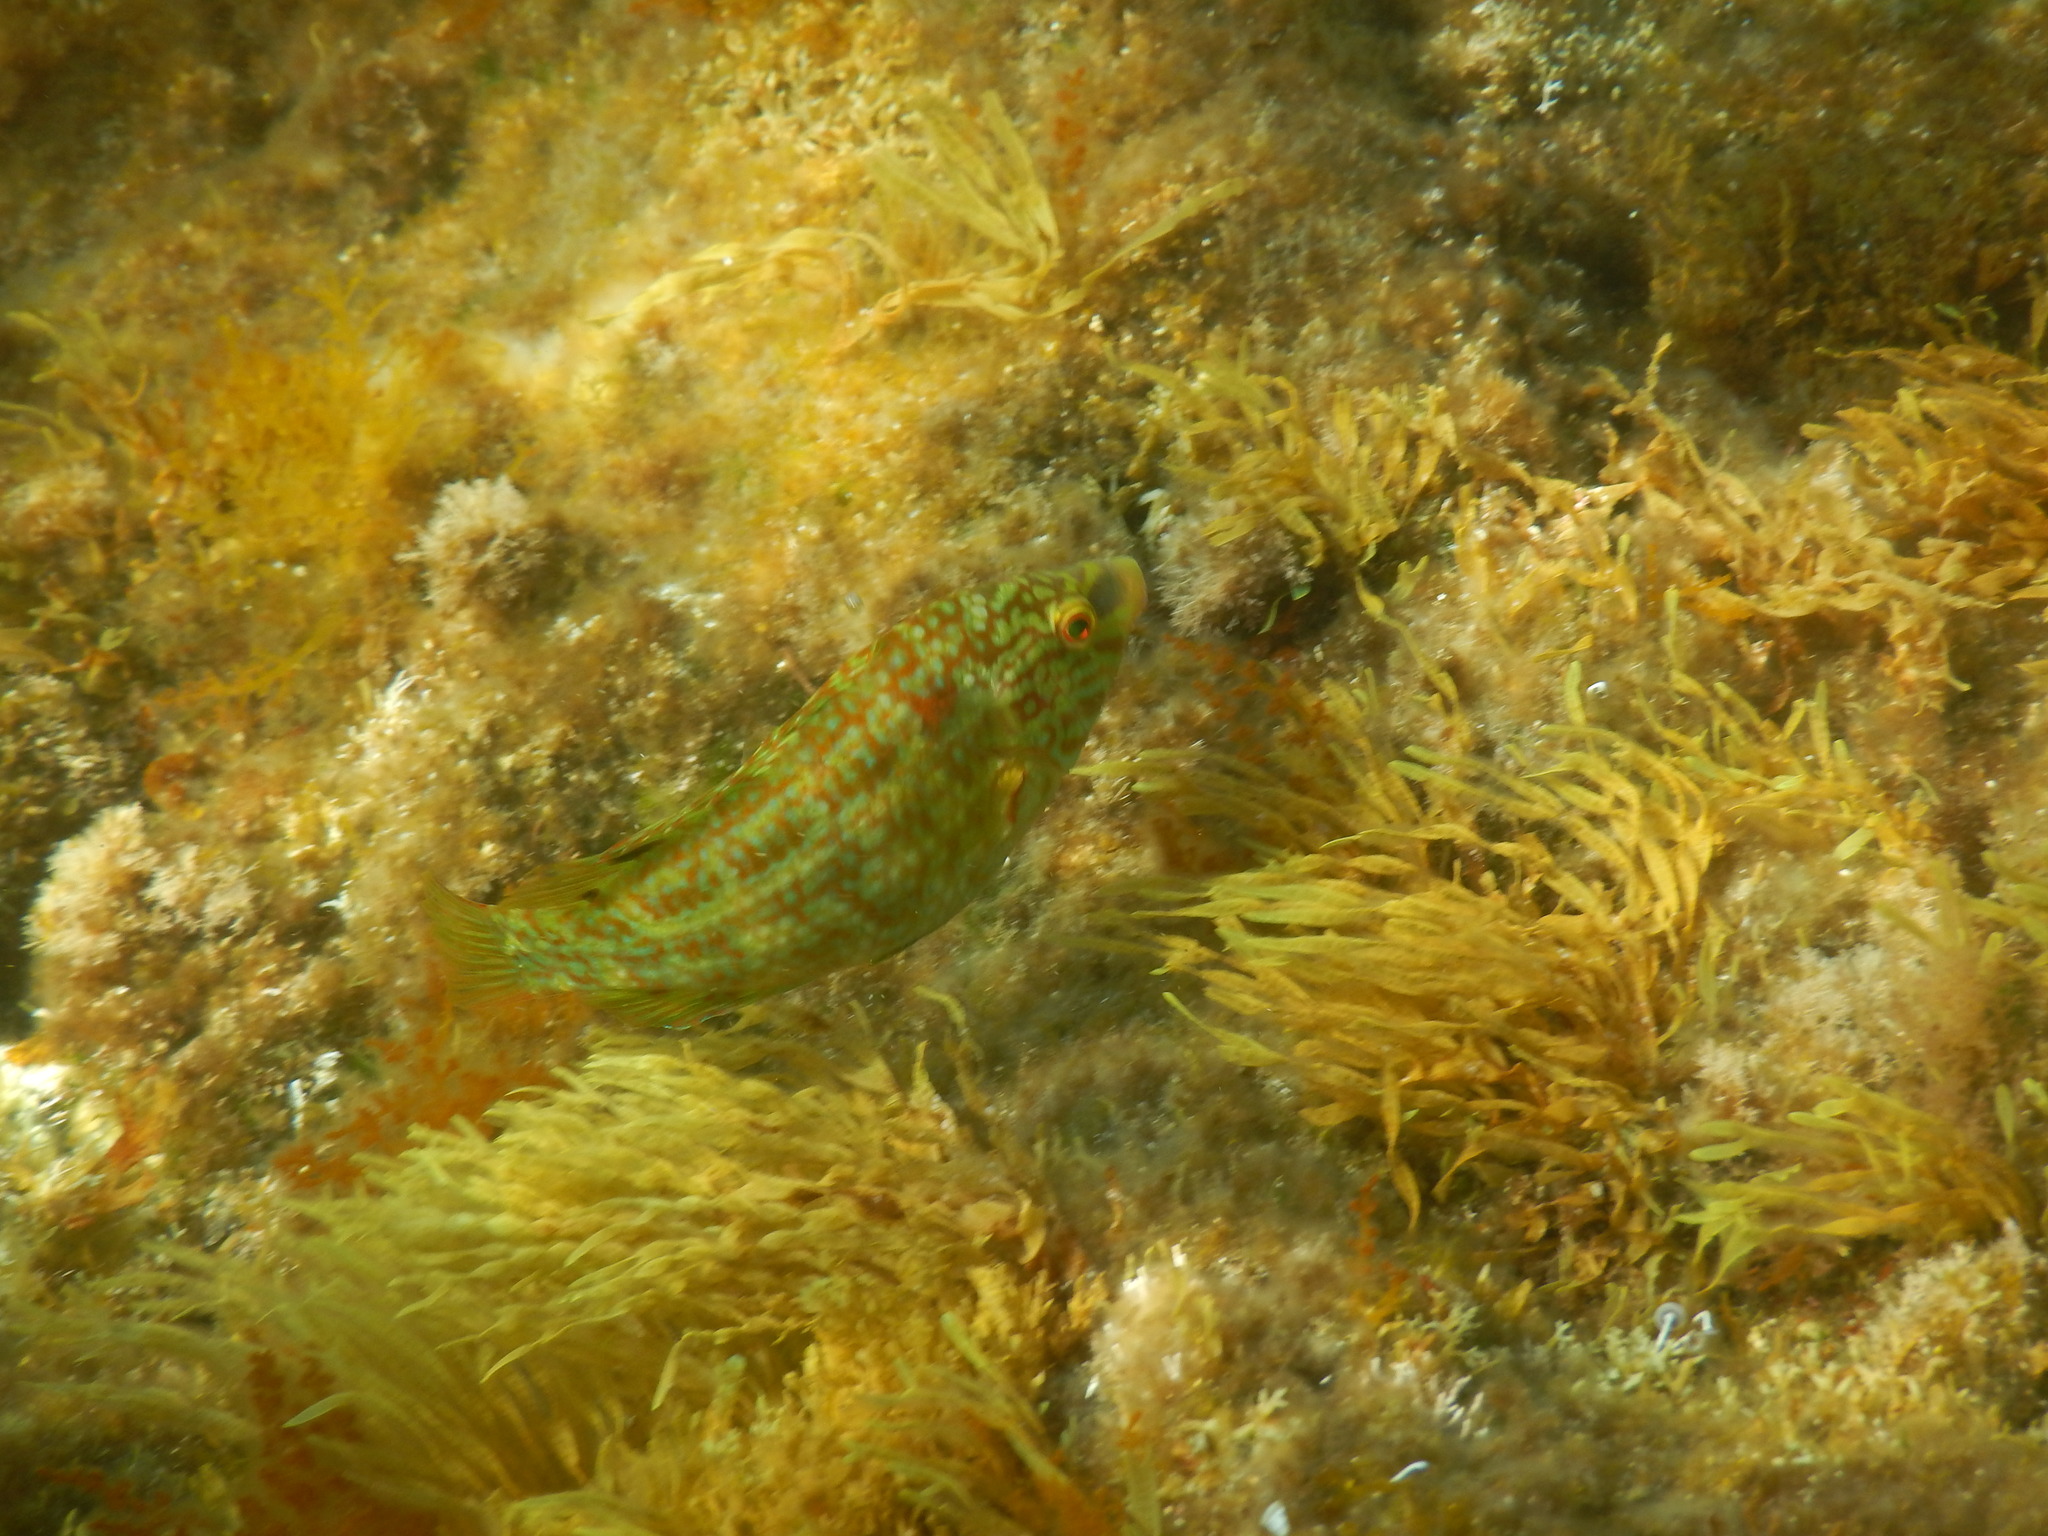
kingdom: Animalia
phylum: Chordata
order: Perciformes
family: Labridae
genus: Symphodus
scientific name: Symphodus roissali
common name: Five-spotted wrasse
